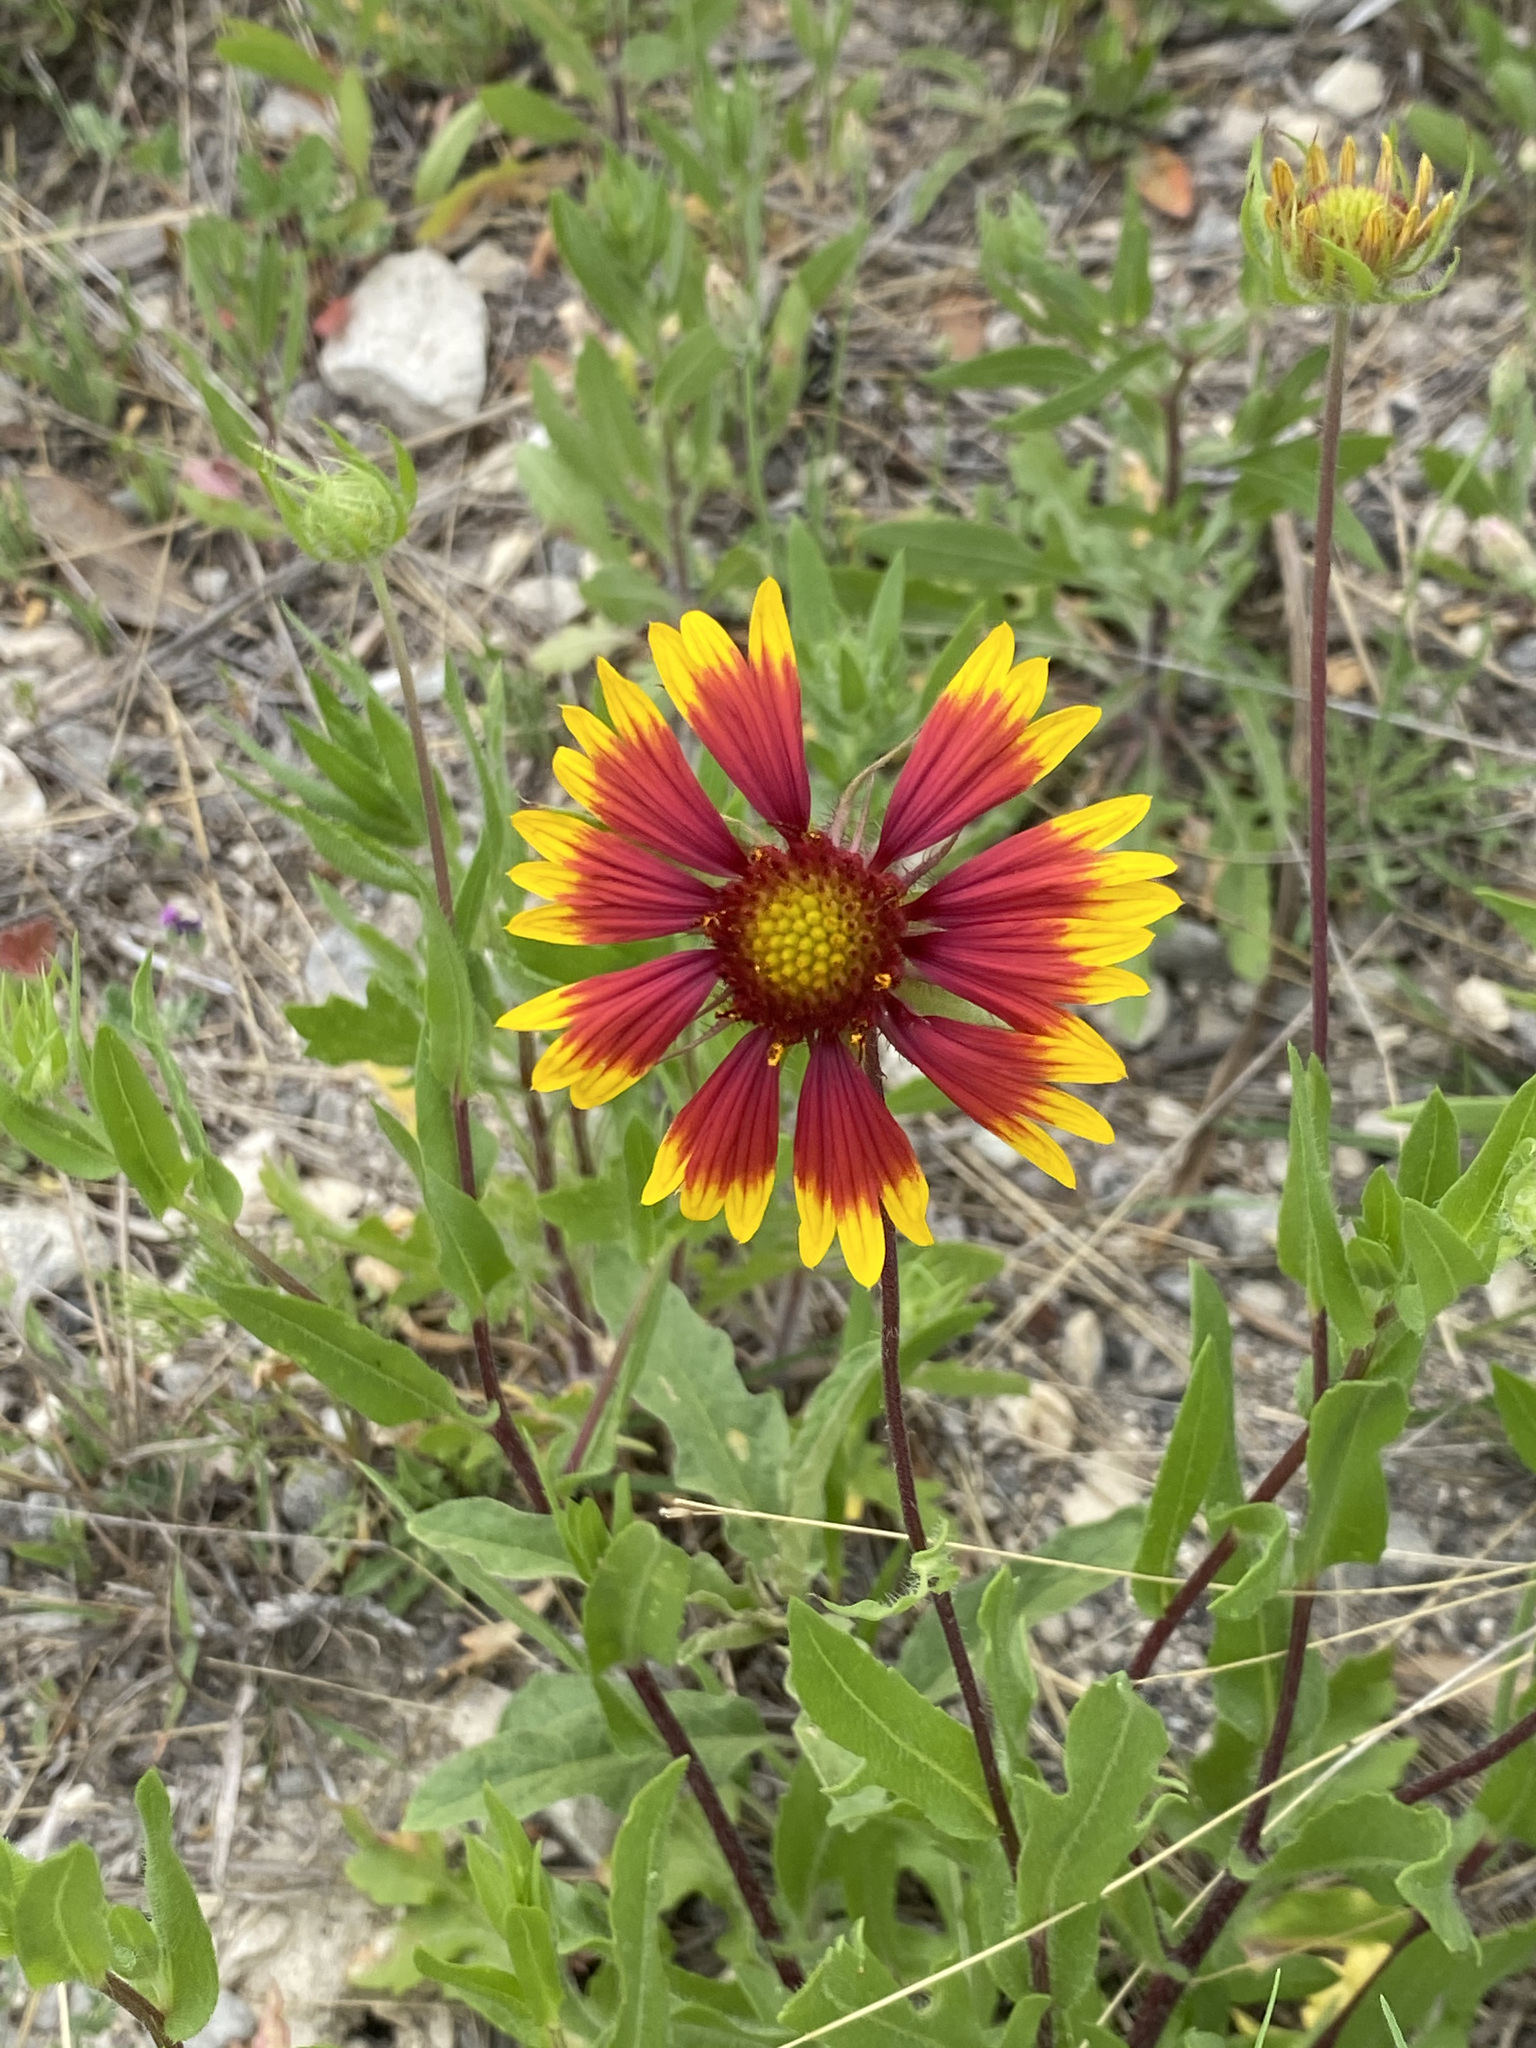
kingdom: Plantae
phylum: Tracheophyta
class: Magnoliopsida
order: Asterales
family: Asteraceae
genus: Gaillardia
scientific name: Gaillardia pulchella
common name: Firewheel
